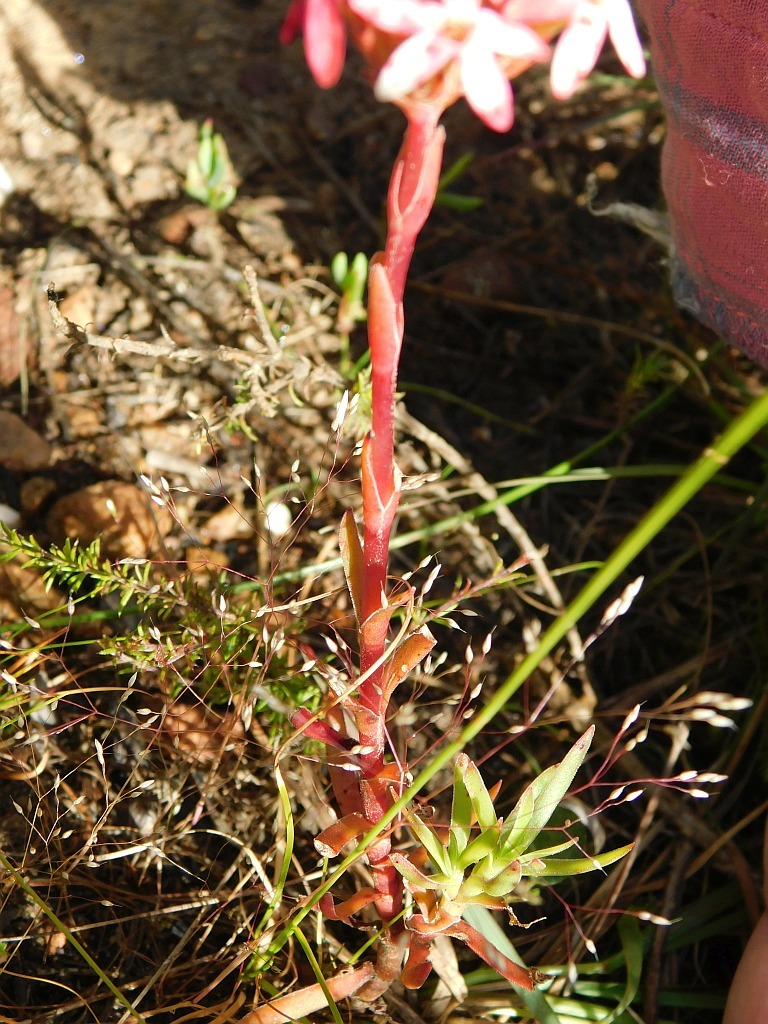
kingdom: Plantae
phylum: Tracheophyta
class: Magnoliopsida
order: Saxifragales
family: Crassulaceae
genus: Crassula
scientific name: Crassula fascicularis
